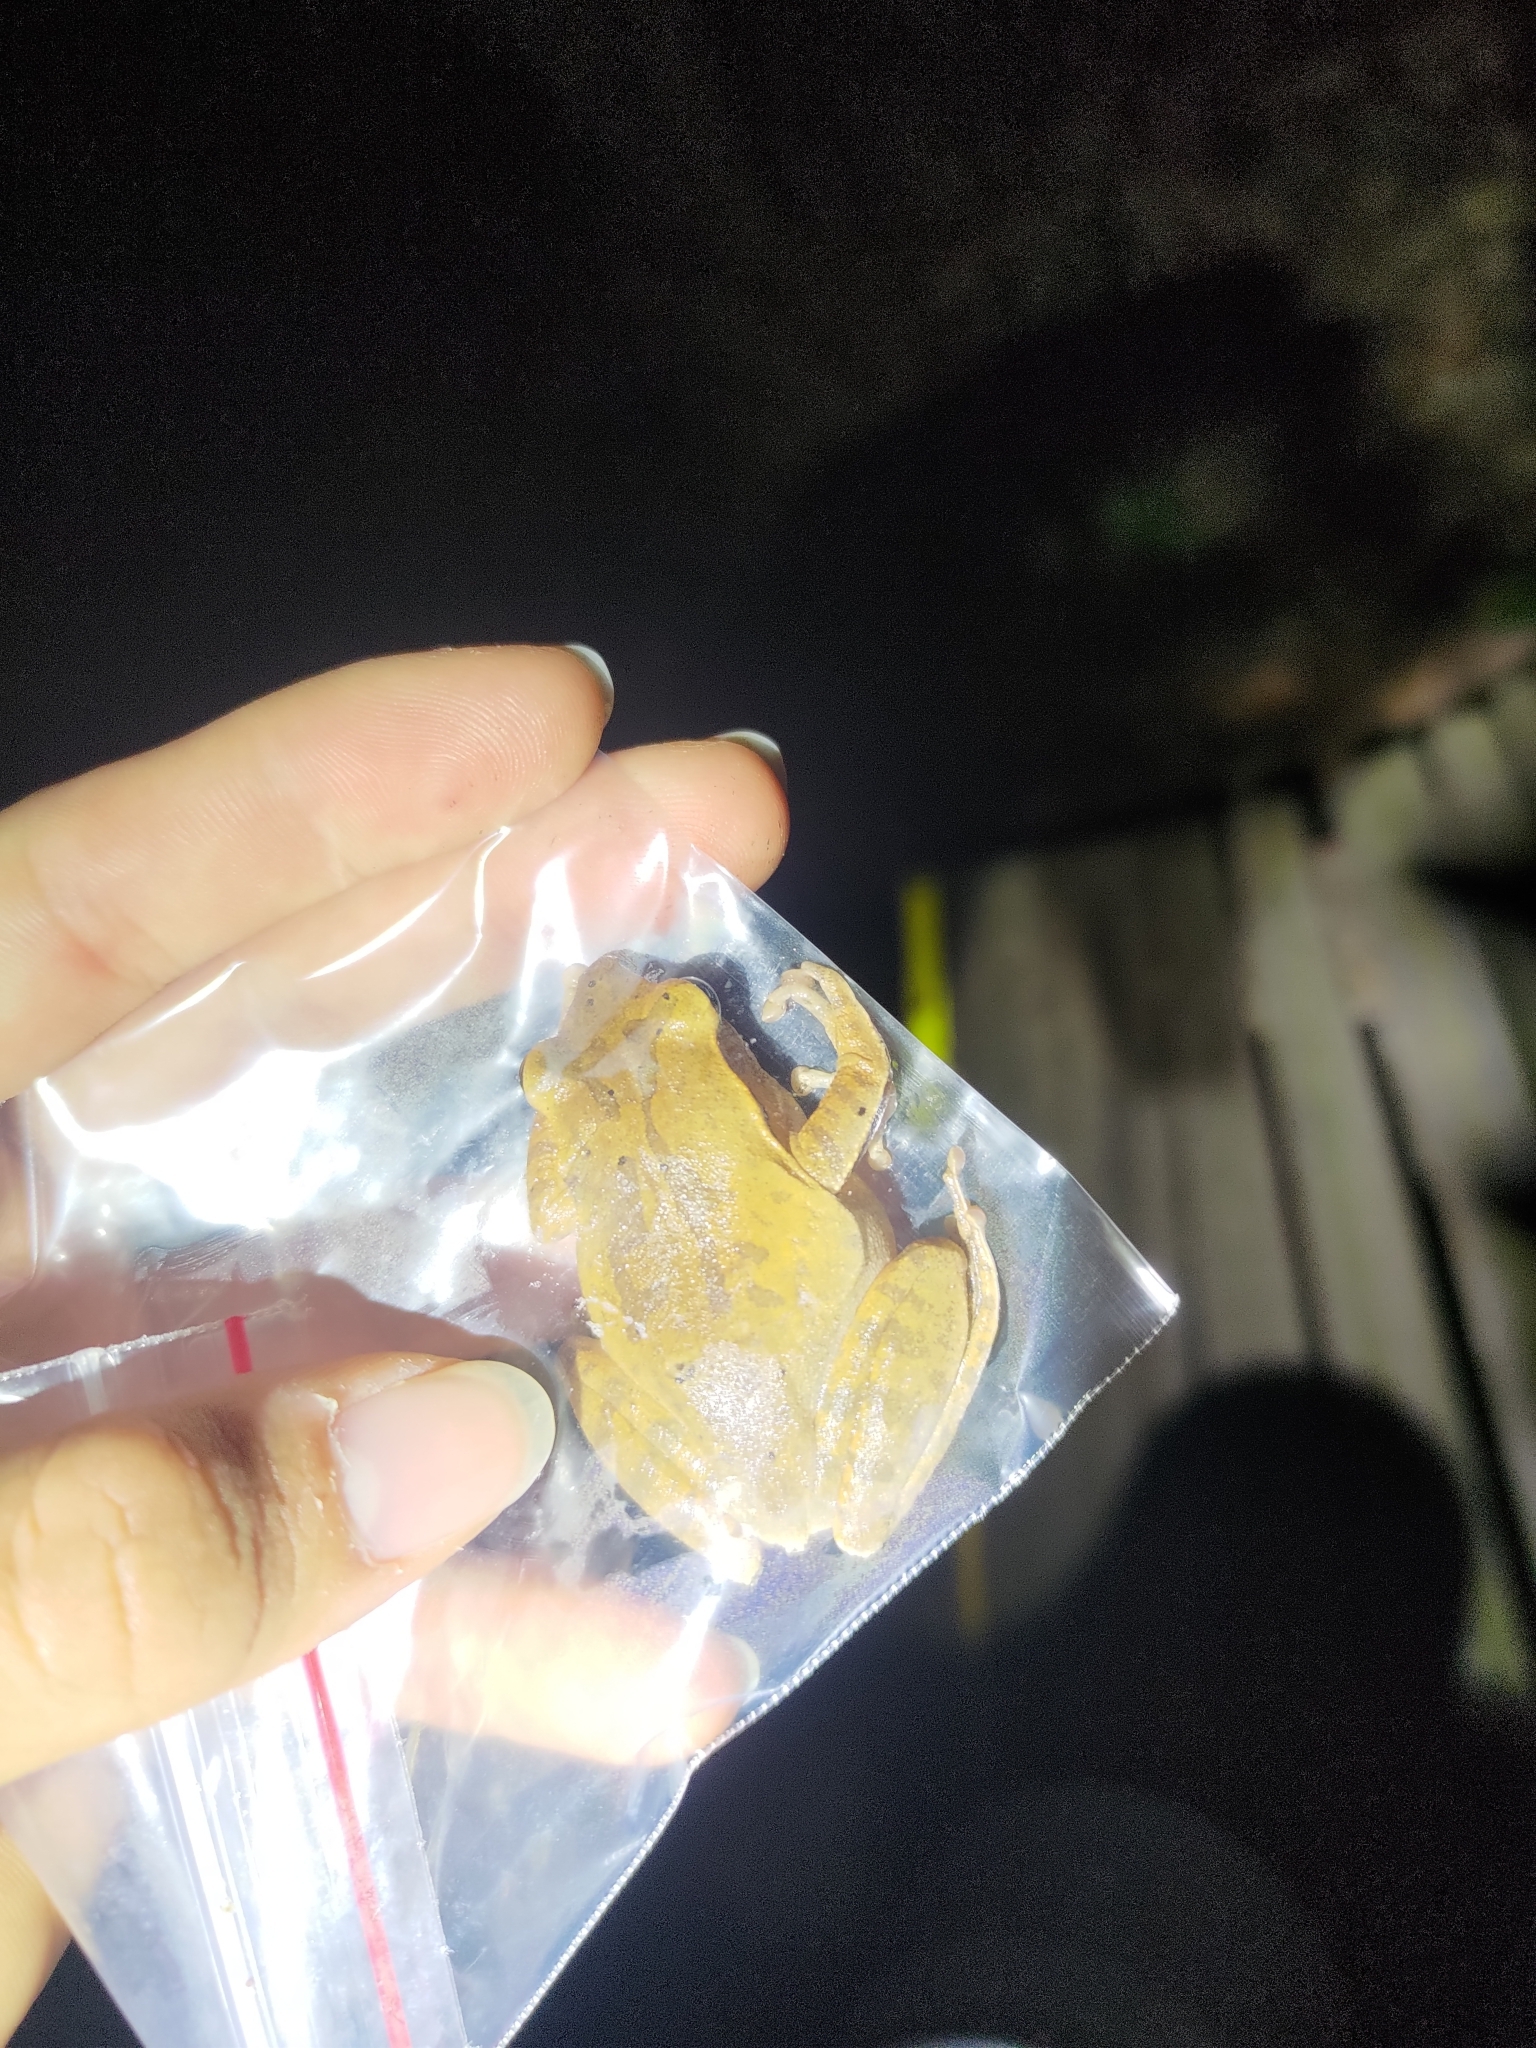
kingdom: Animalia
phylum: Chordata
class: Amphibia
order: Anura
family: Rhacophoridae
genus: Polypedates
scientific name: Polypedates megacephalus
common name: Hong kong whipping frog
